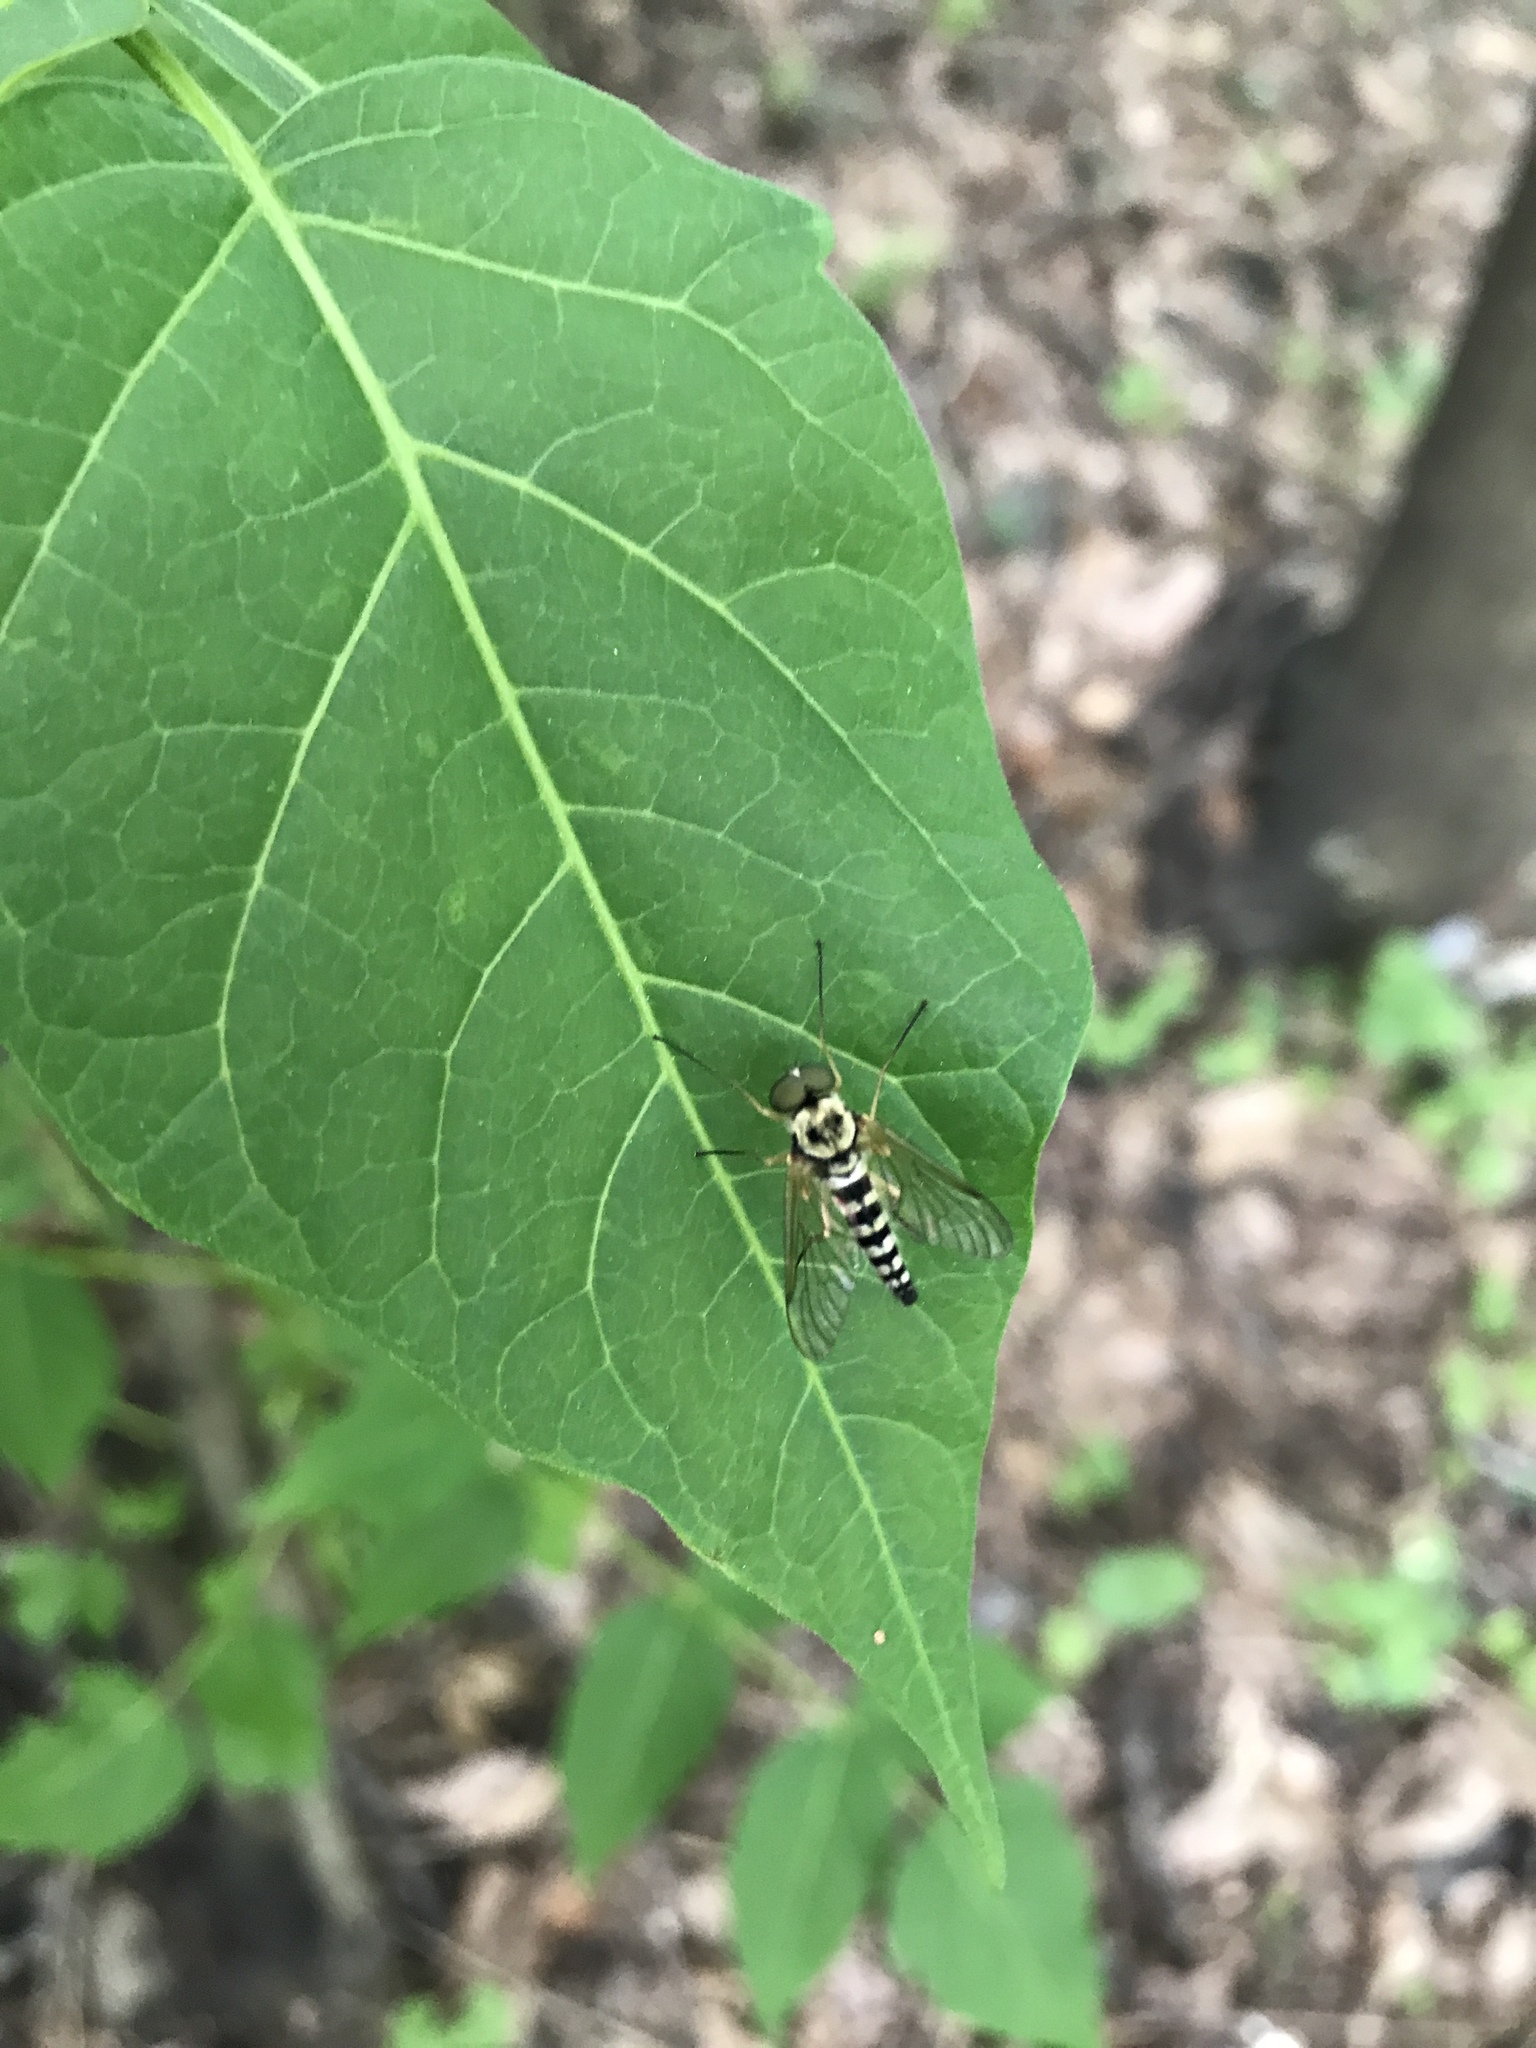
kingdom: Animalia
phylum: Arthropoda
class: Insecta
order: Diptera
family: Rhagionidae
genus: Chrysopilus
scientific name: Chrysopilus ornatus
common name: Ornate snipe fly
